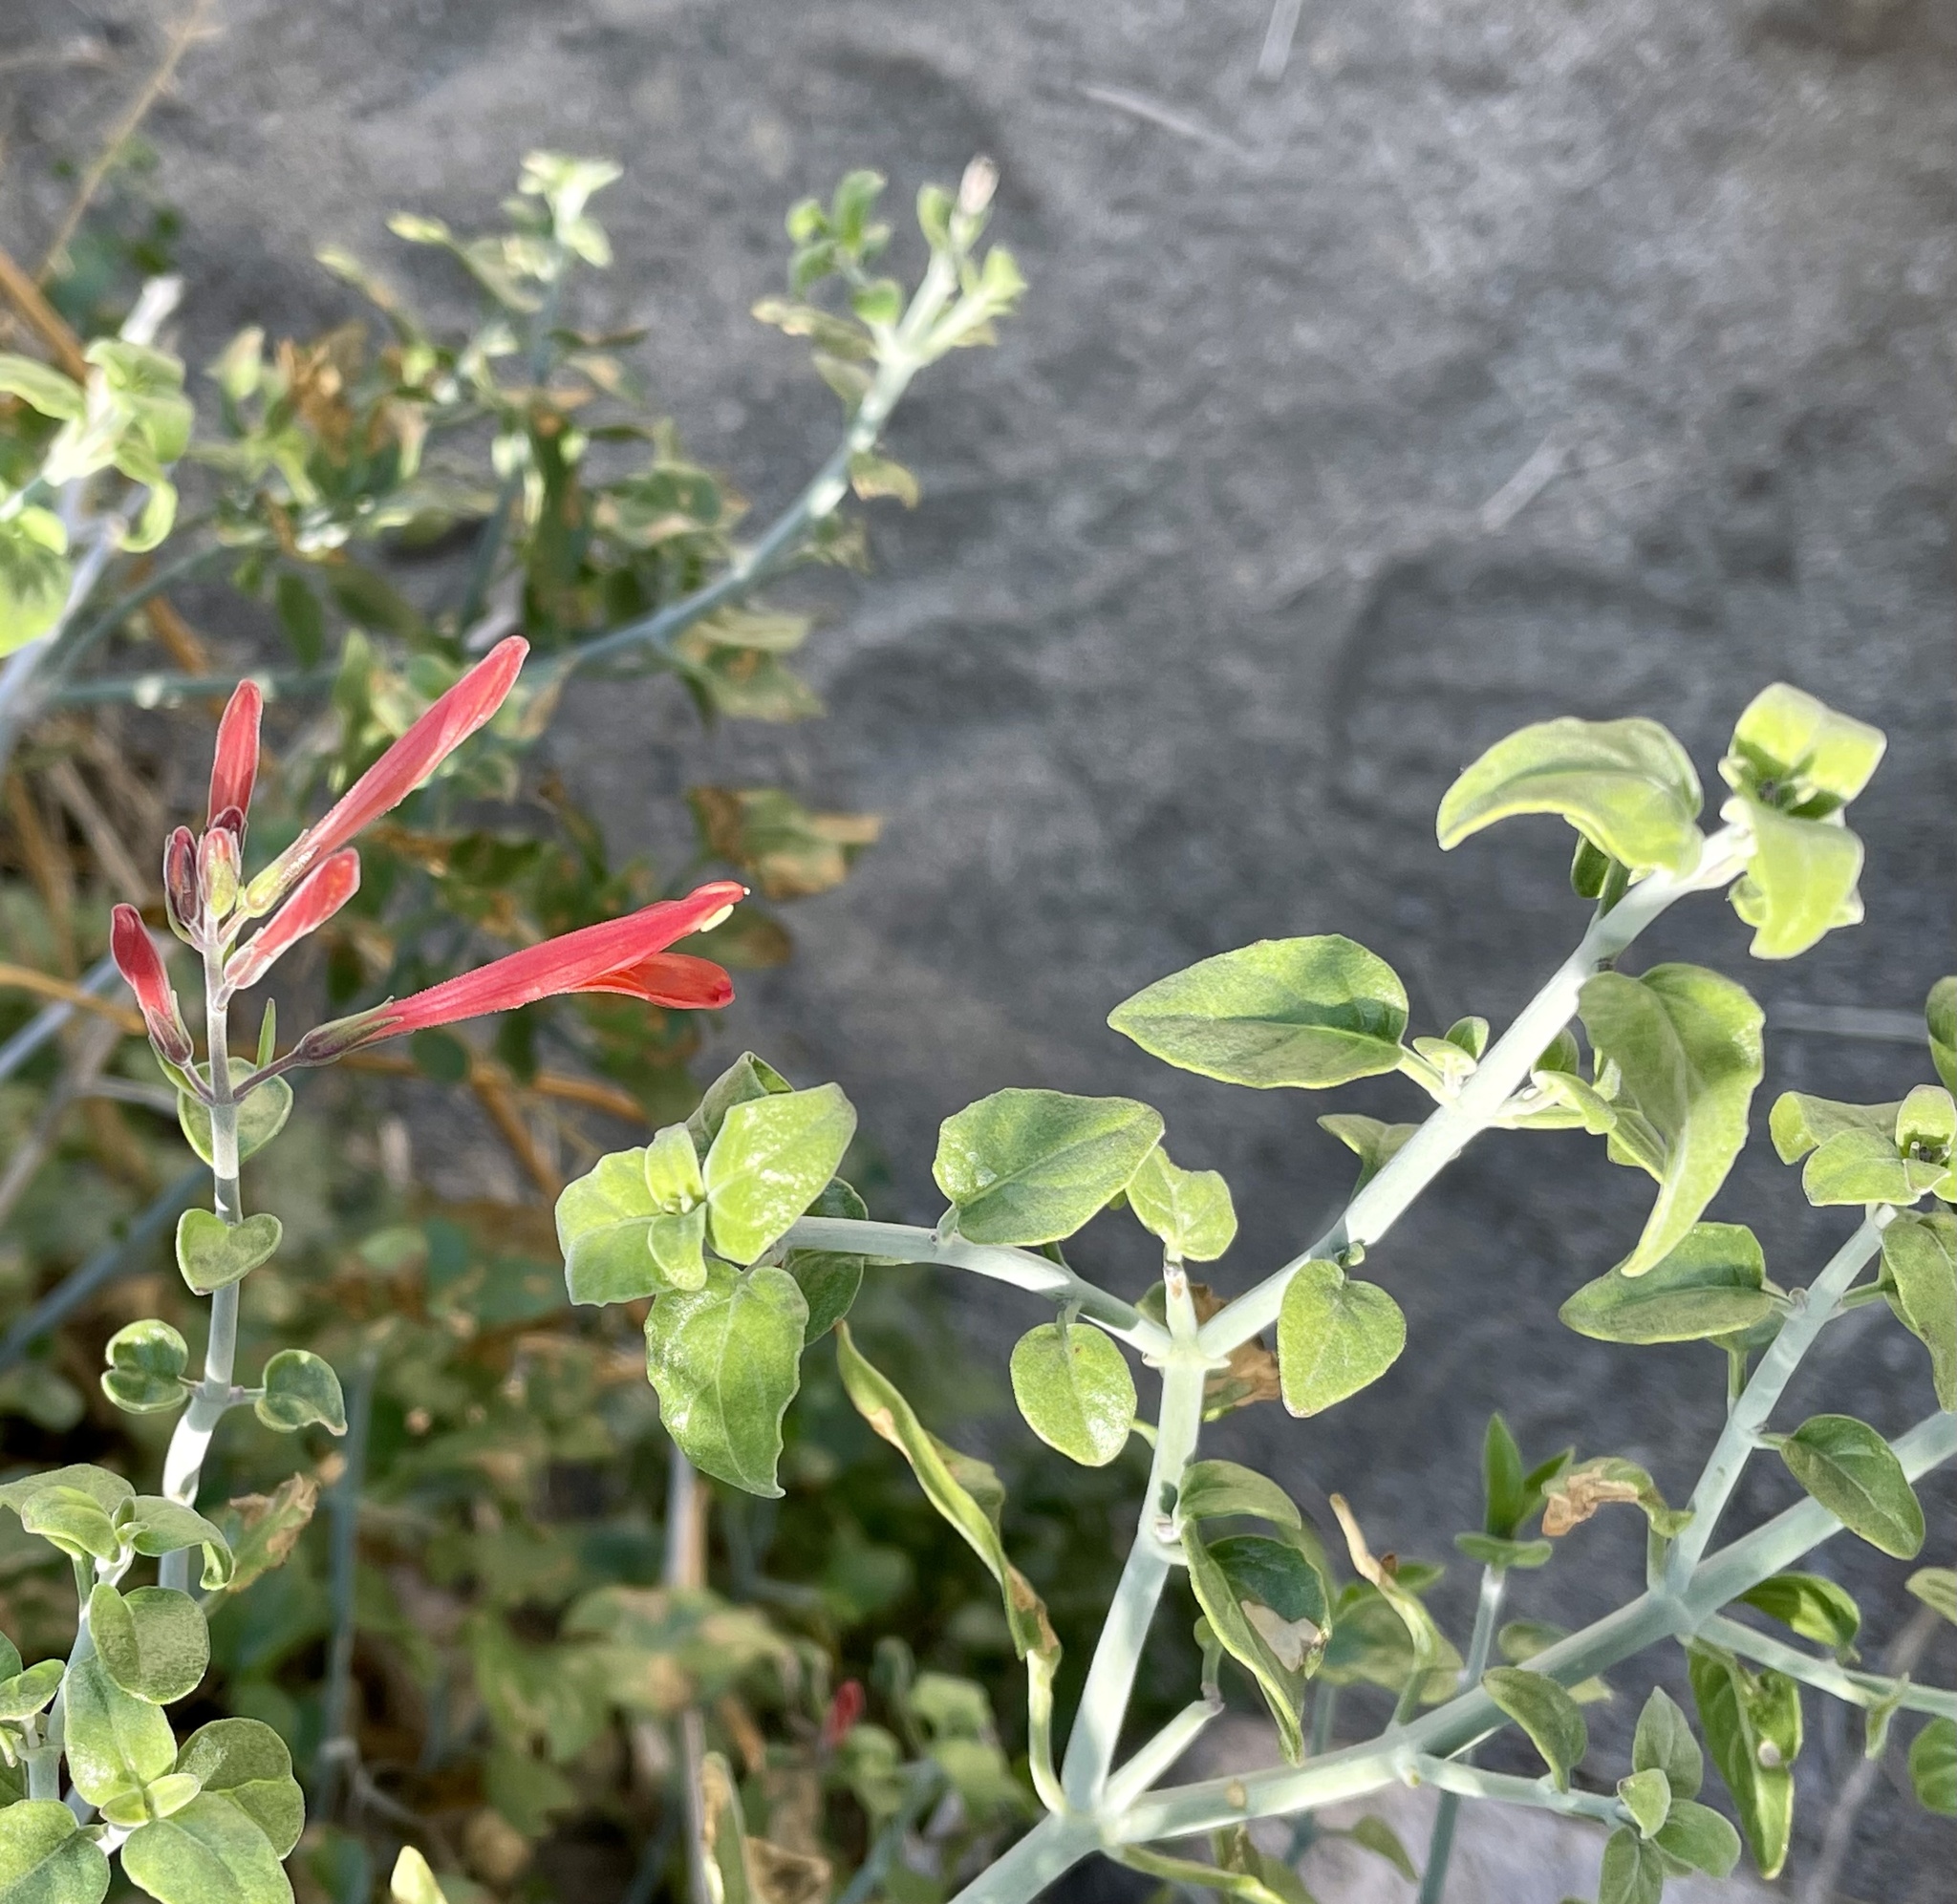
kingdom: Plantae
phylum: Tracheophyta
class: Magnoliopsida
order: Lamiales
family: Acanthaceae
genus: Justicia
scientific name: Justicia californica
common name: Chuparosa-honeysuckle
